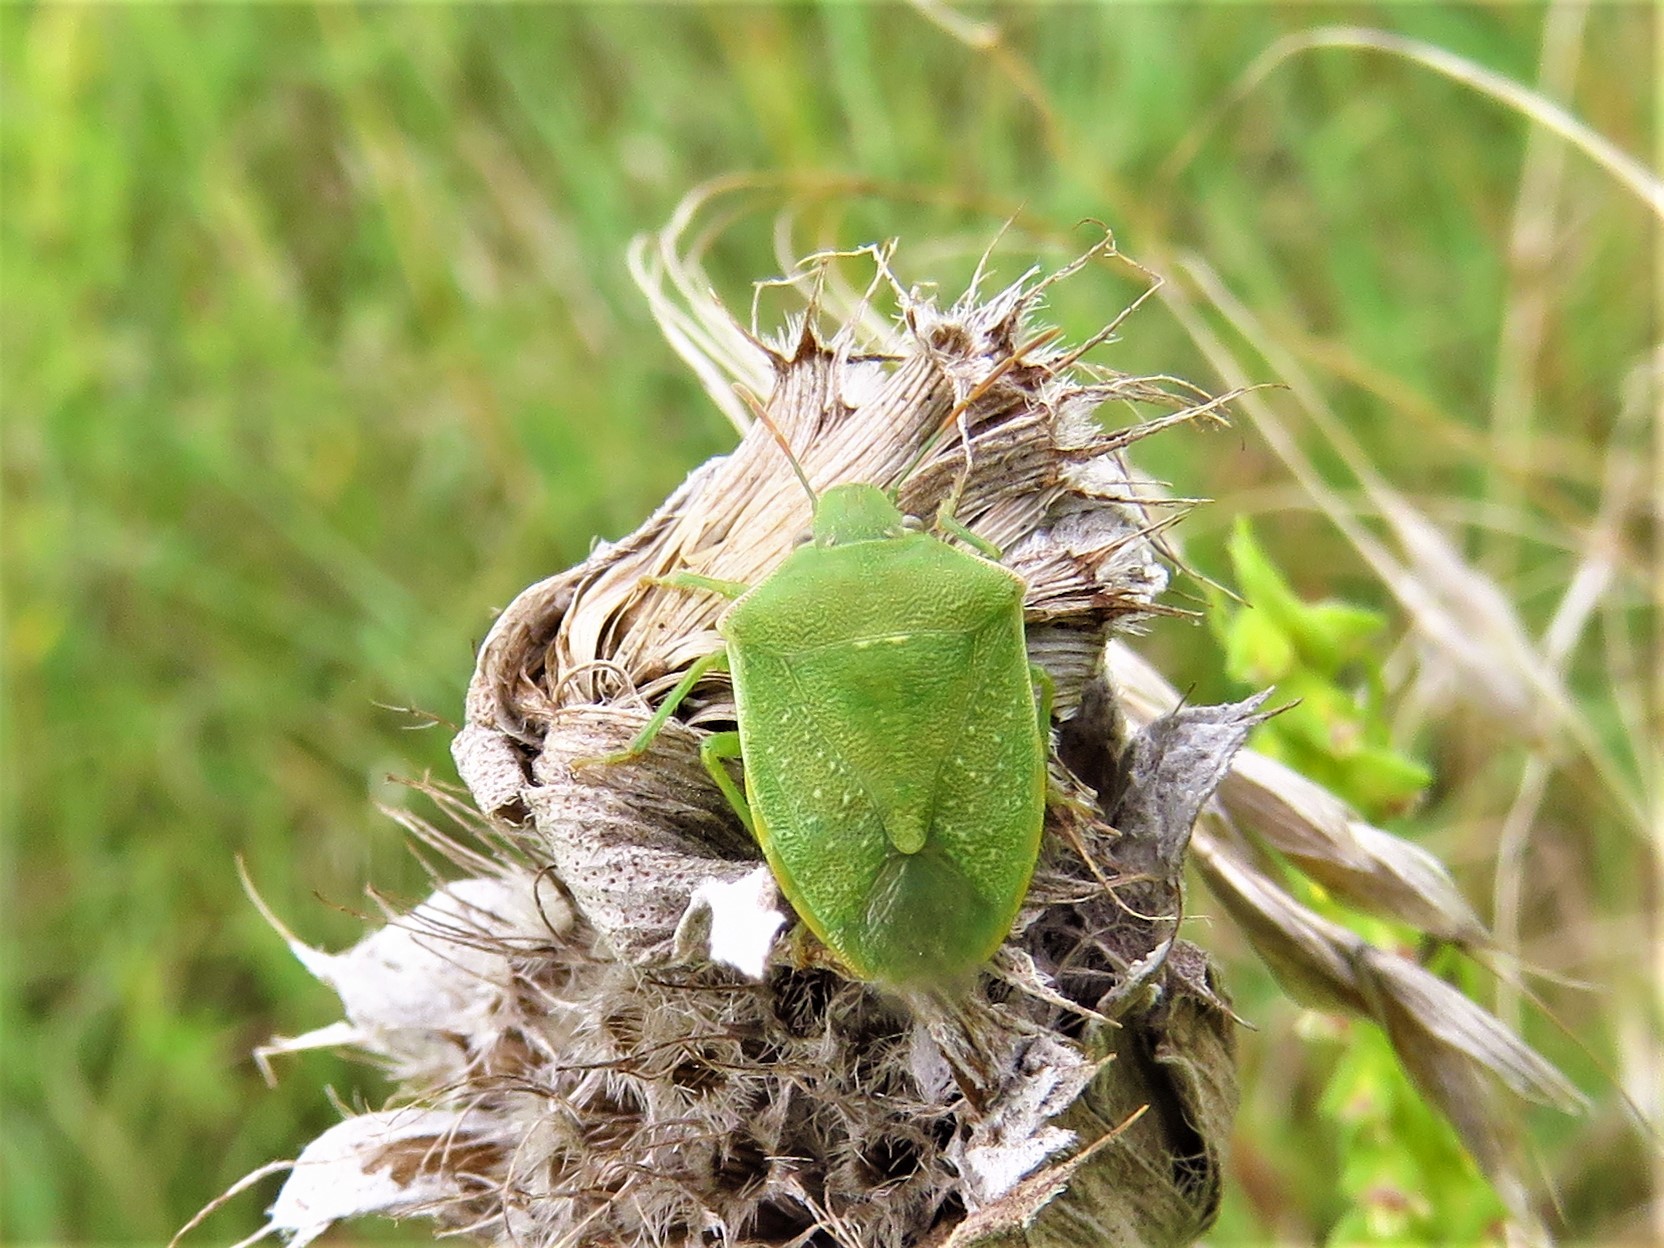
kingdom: Animalia
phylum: Arthropoda
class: Insecta
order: Hemiptera
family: Pentatomidae
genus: Thyanta
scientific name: Thyanta custator
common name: Stink bug
